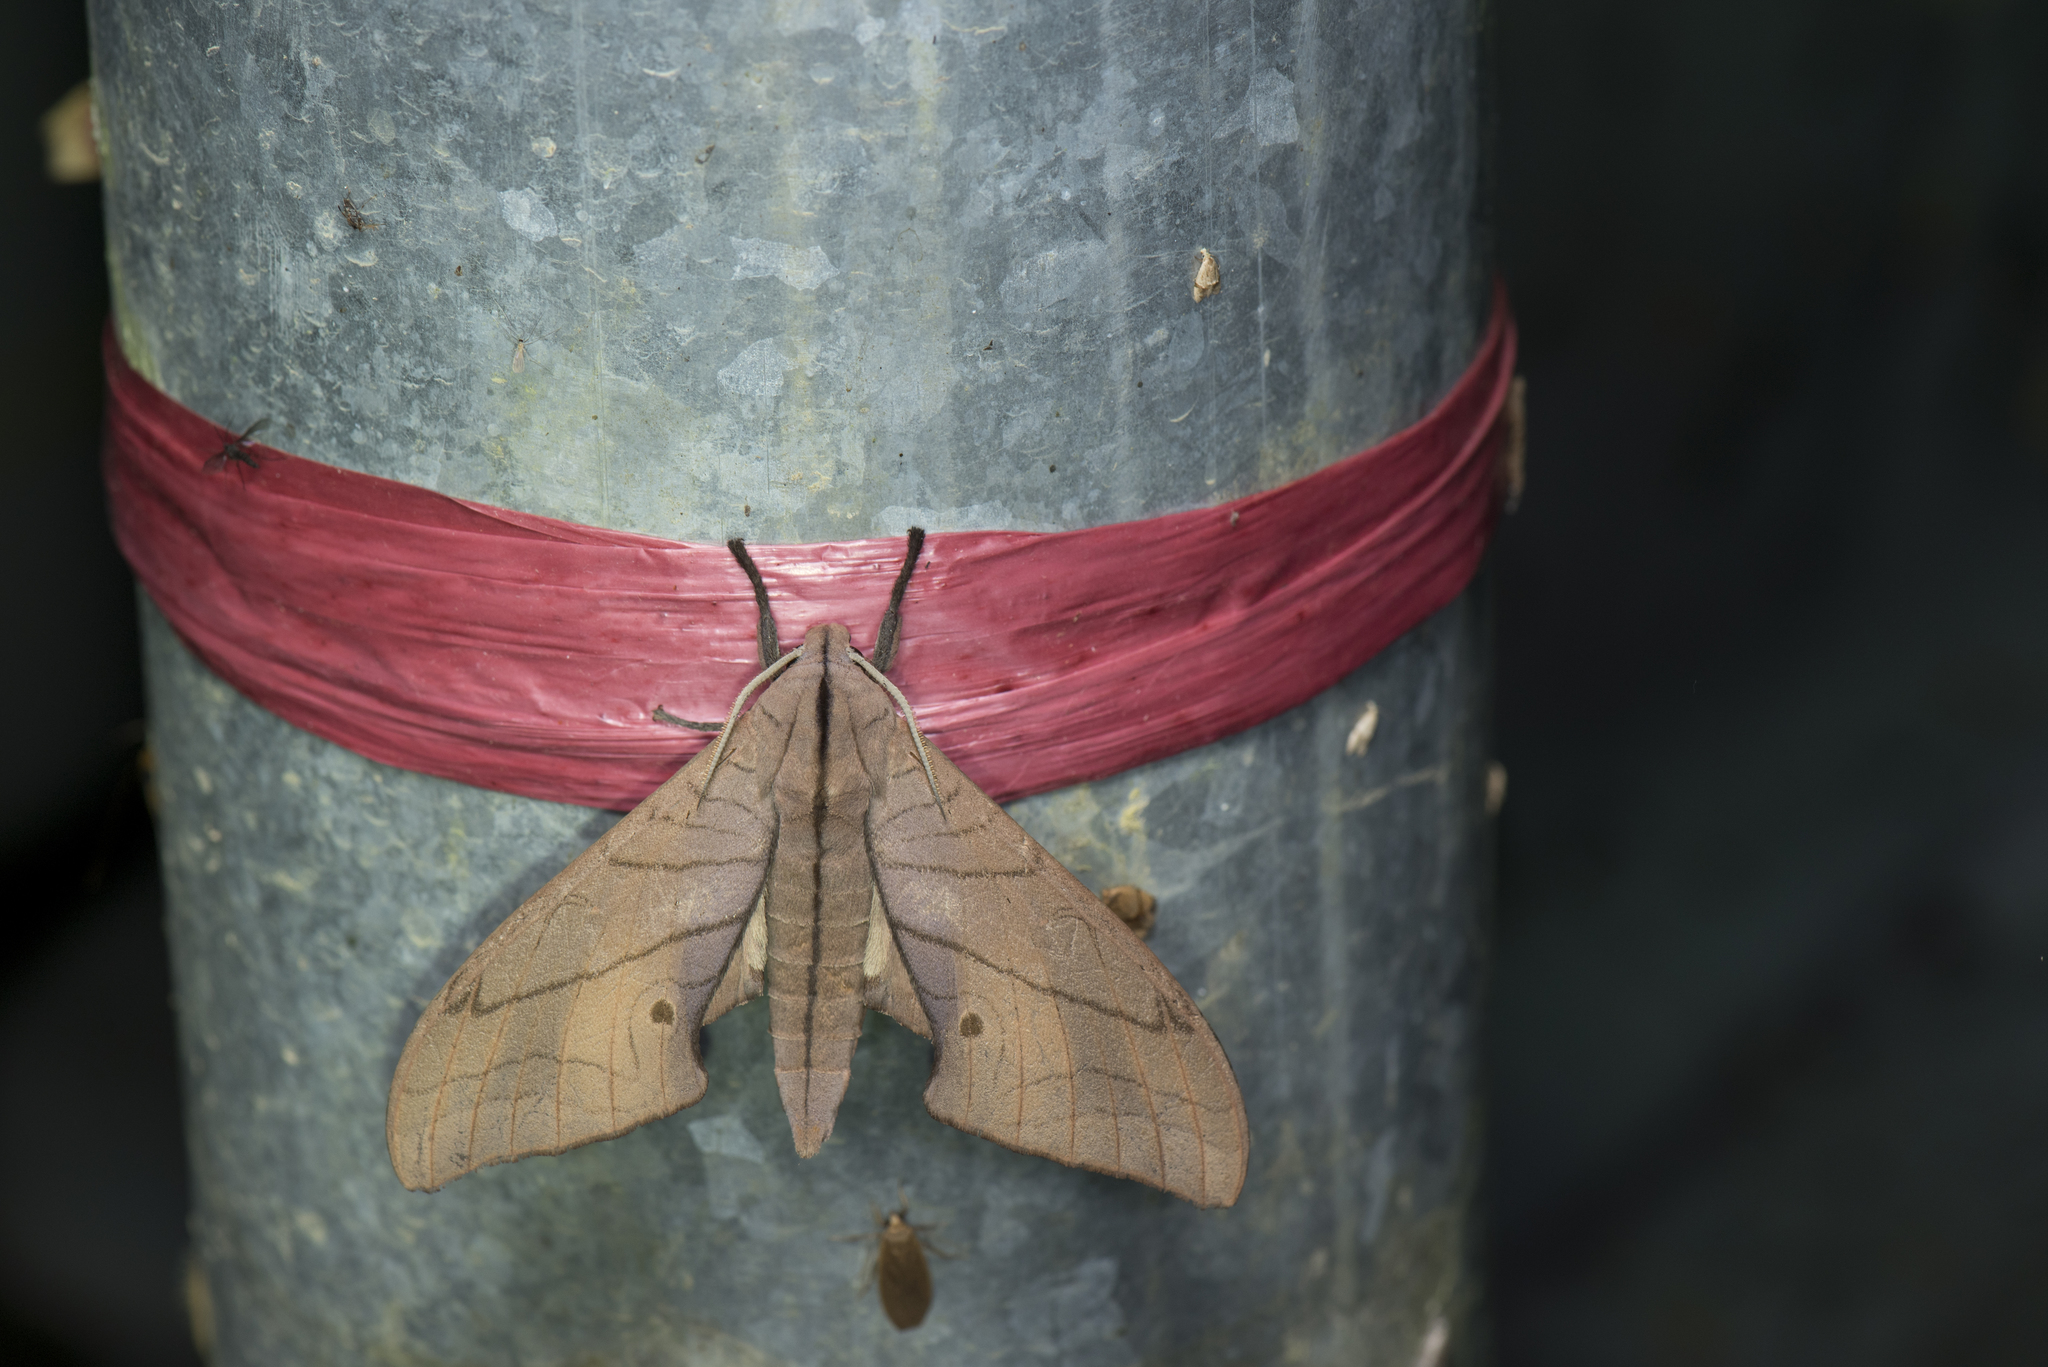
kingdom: Animalia
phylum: Arthropoda
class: Insecta
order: Lepidoptera
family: Sphingidae
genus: Marumba
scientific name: Marumba cristata
